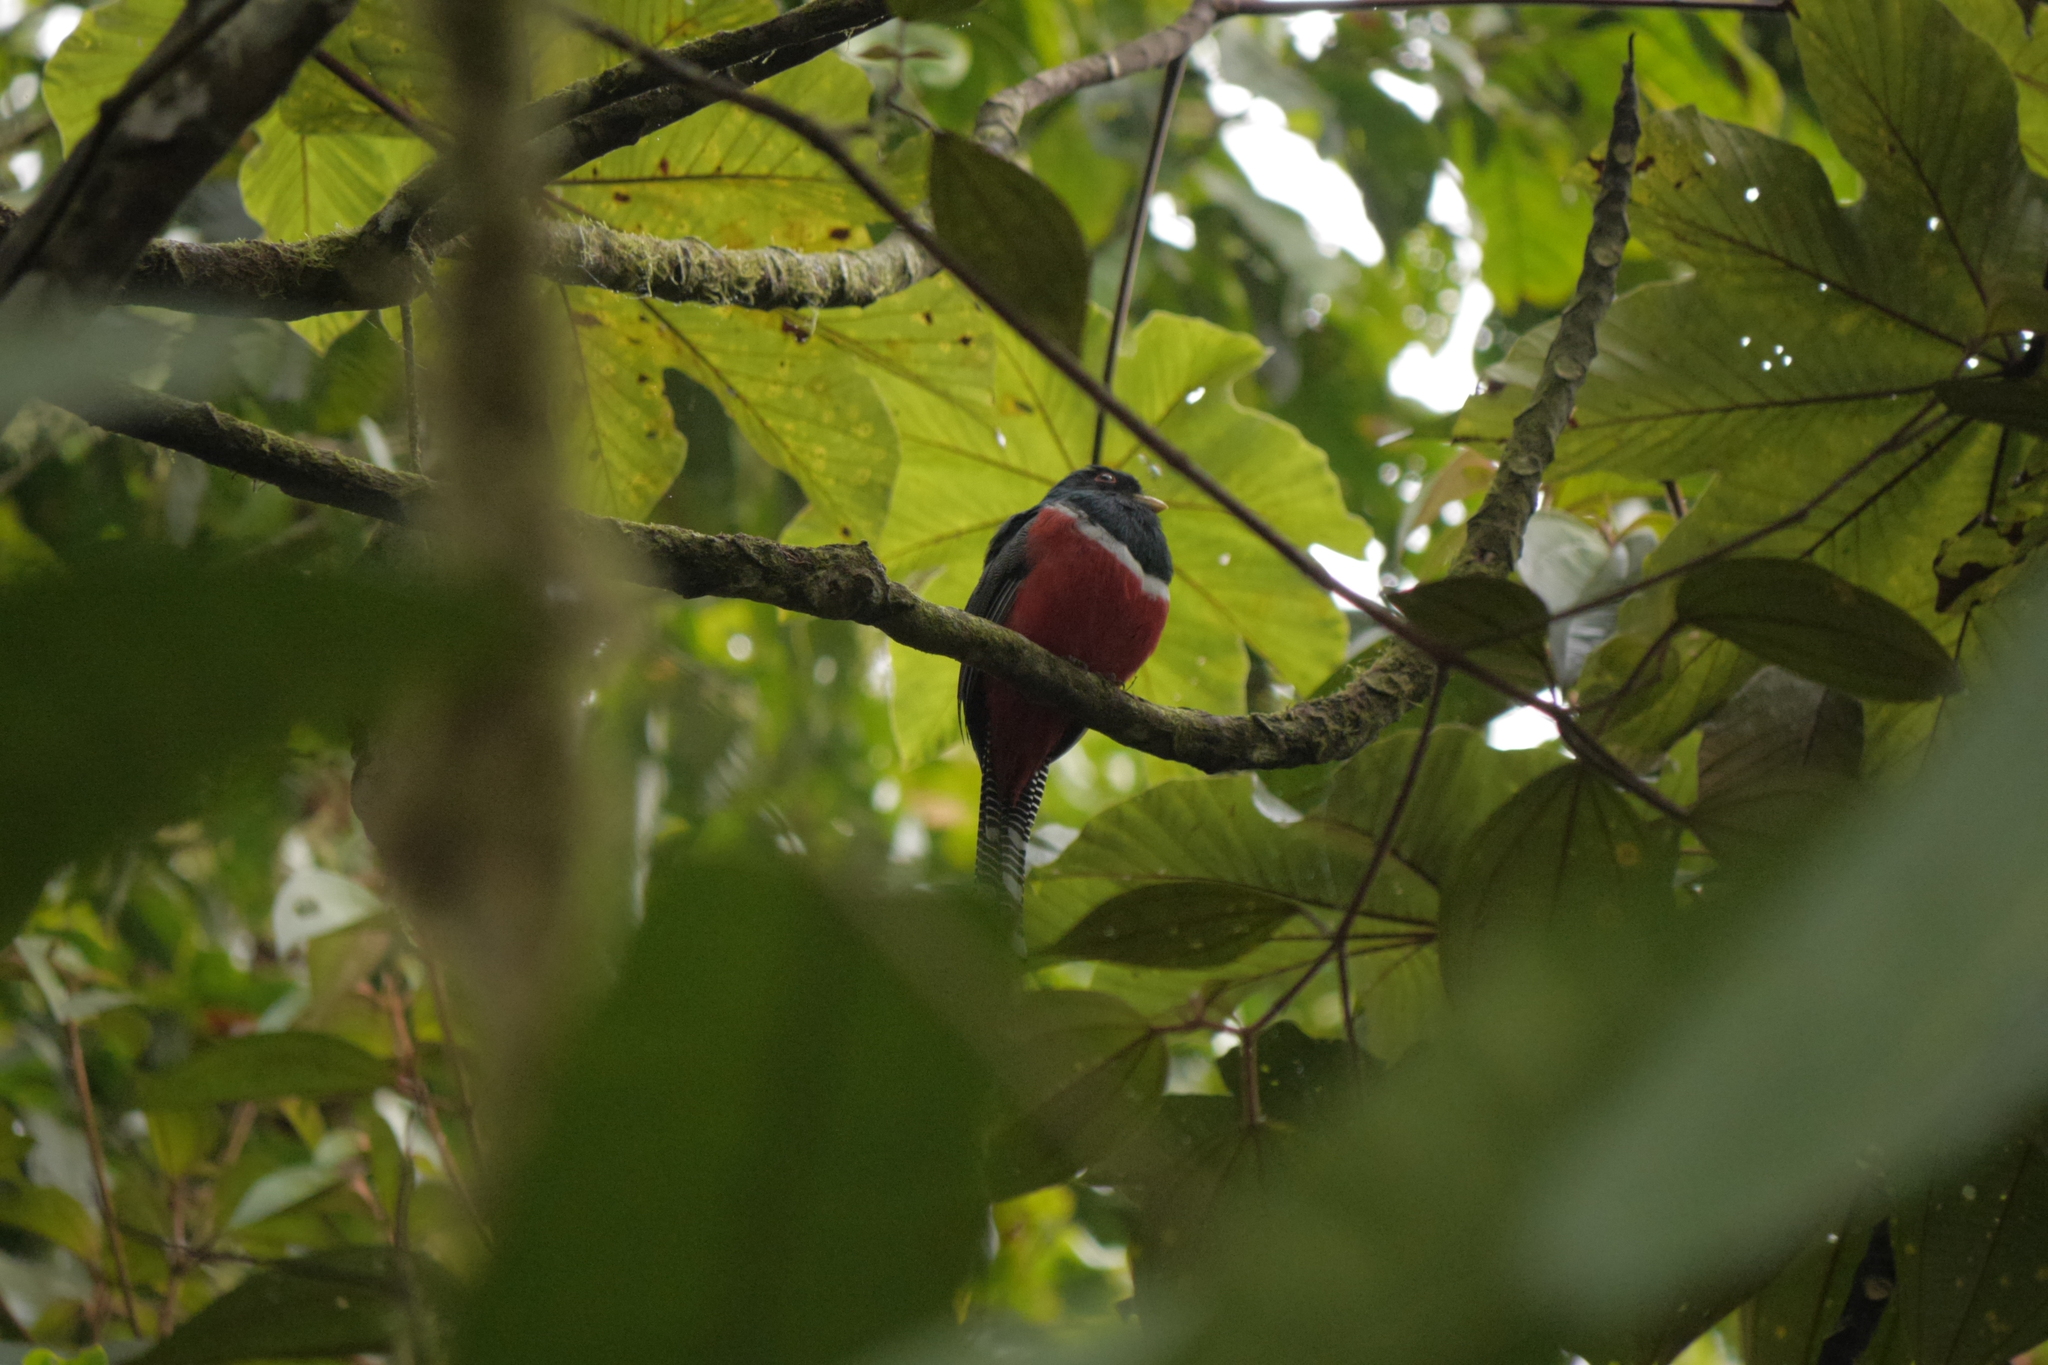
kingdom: Animalia
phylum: Chordata
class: Aves
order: Trogoniformes
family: Trogonidae
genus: Trogon
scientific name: Trogon collaris
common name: Collared trogon
